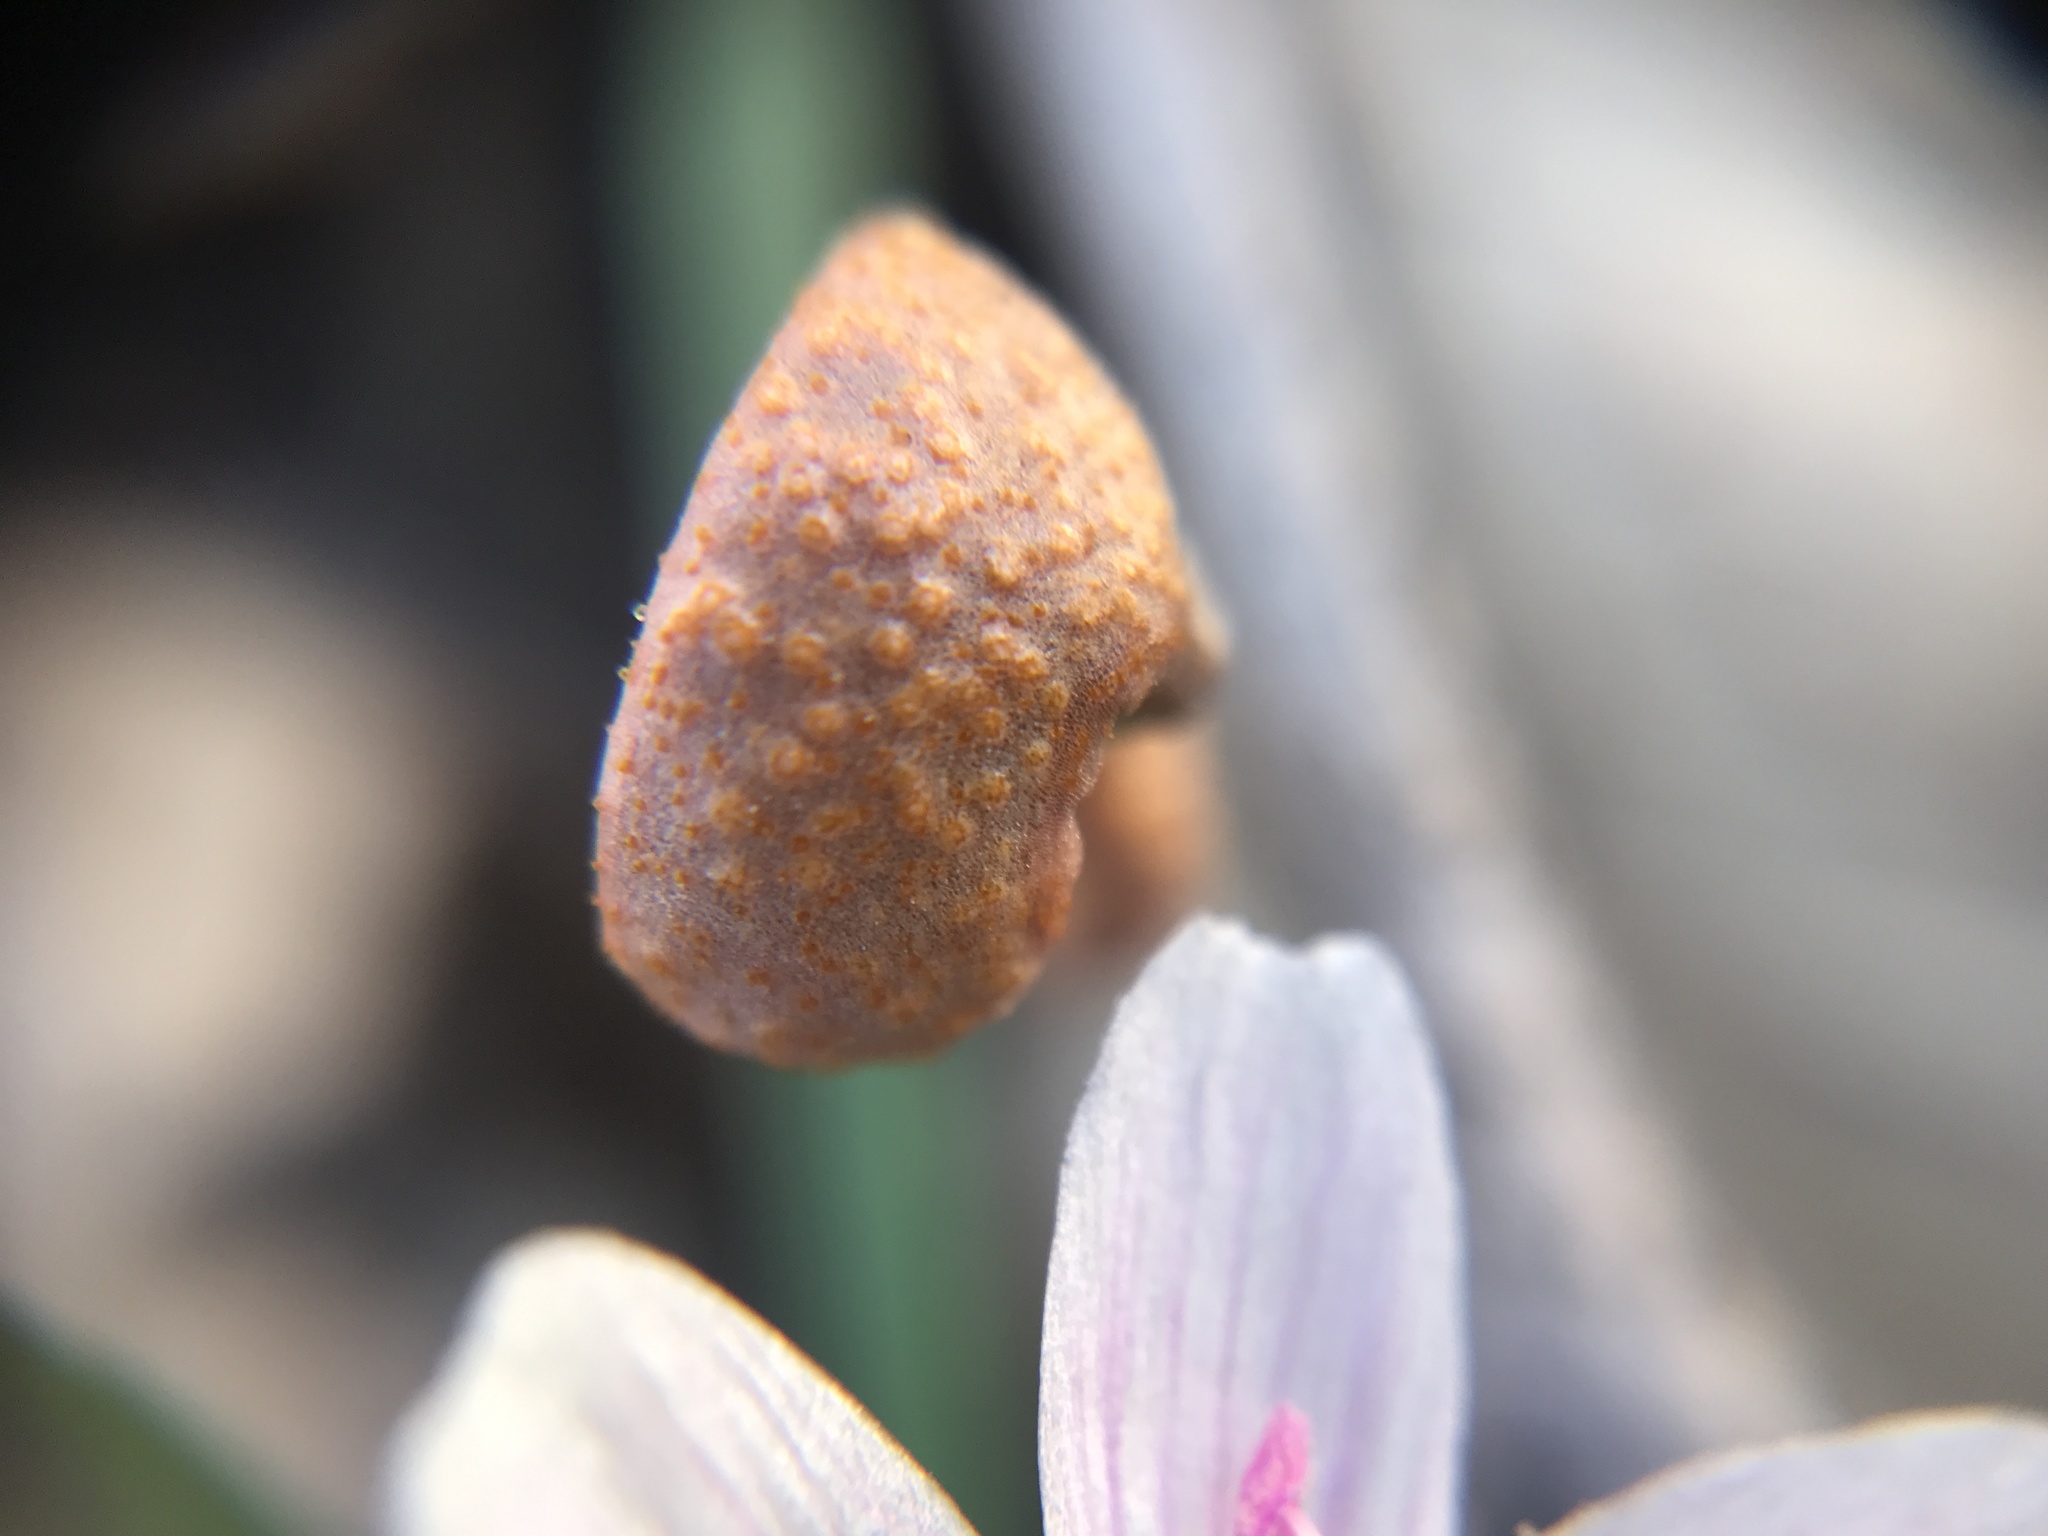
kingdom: Fungi
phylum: Basidiomycota
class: Pucciniomycetes
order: Pucciniales
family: Pucciniaceae
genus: Puccinia
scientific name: Puccinia mariae-wilsoniae
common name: Spring beauty rust
